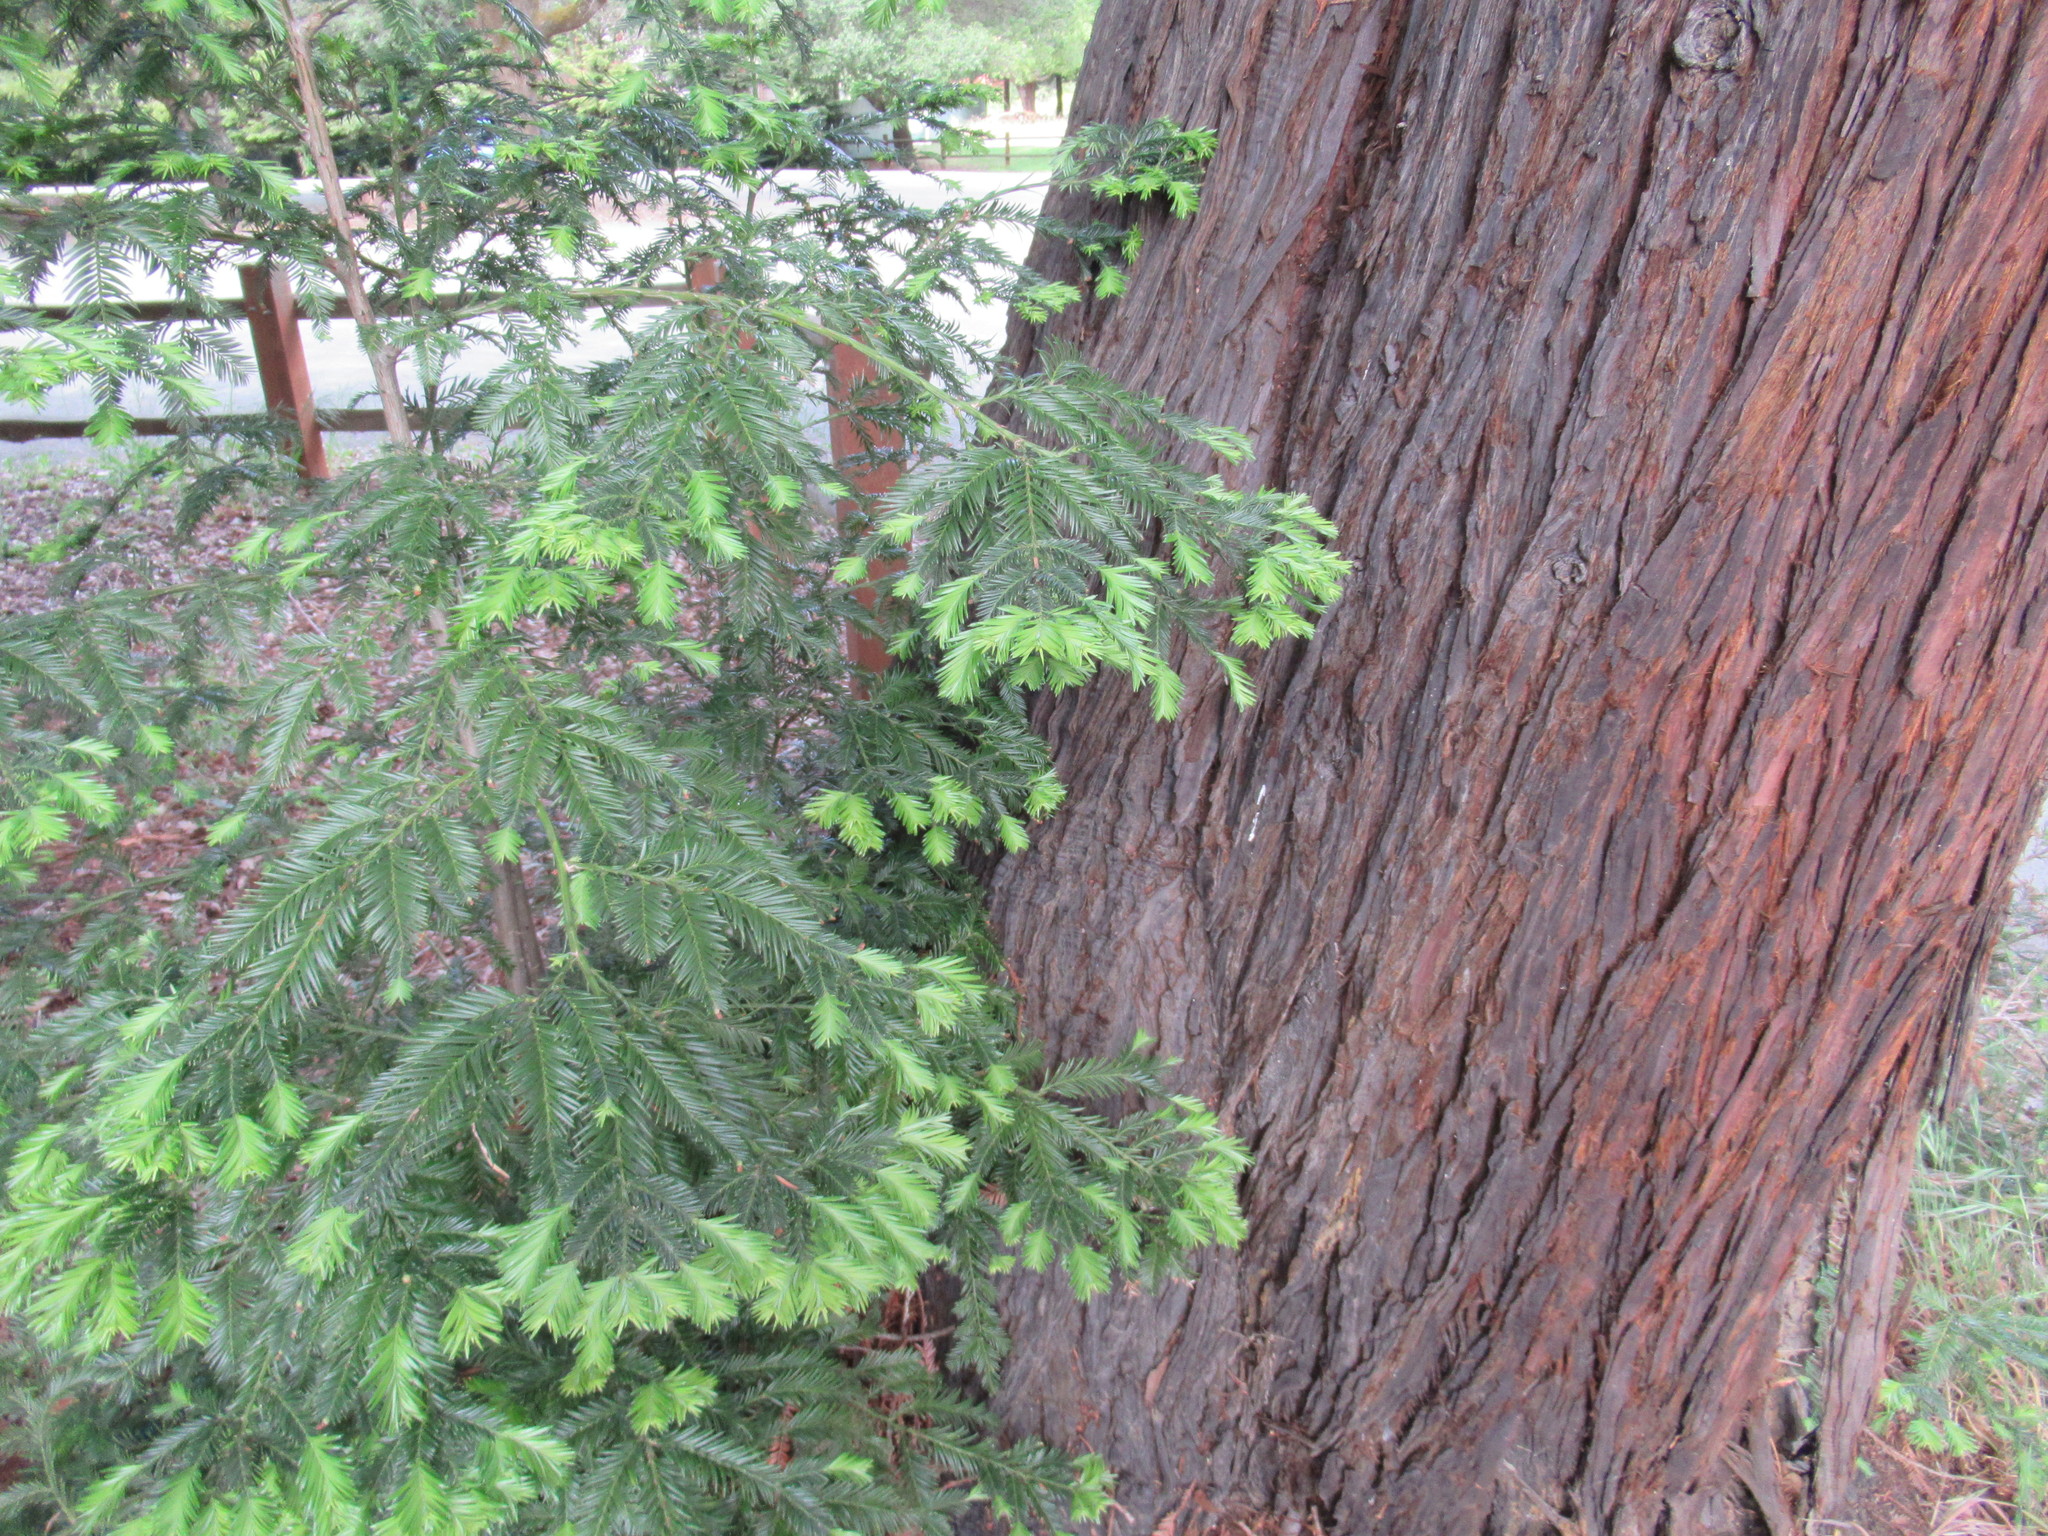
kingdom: Plantae
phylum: Tracheophyta
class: Pinopsida
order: Pinales
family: Cupressaceae
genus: Sequoia
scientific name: Sequoia sempervirens
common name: Coast redwood
